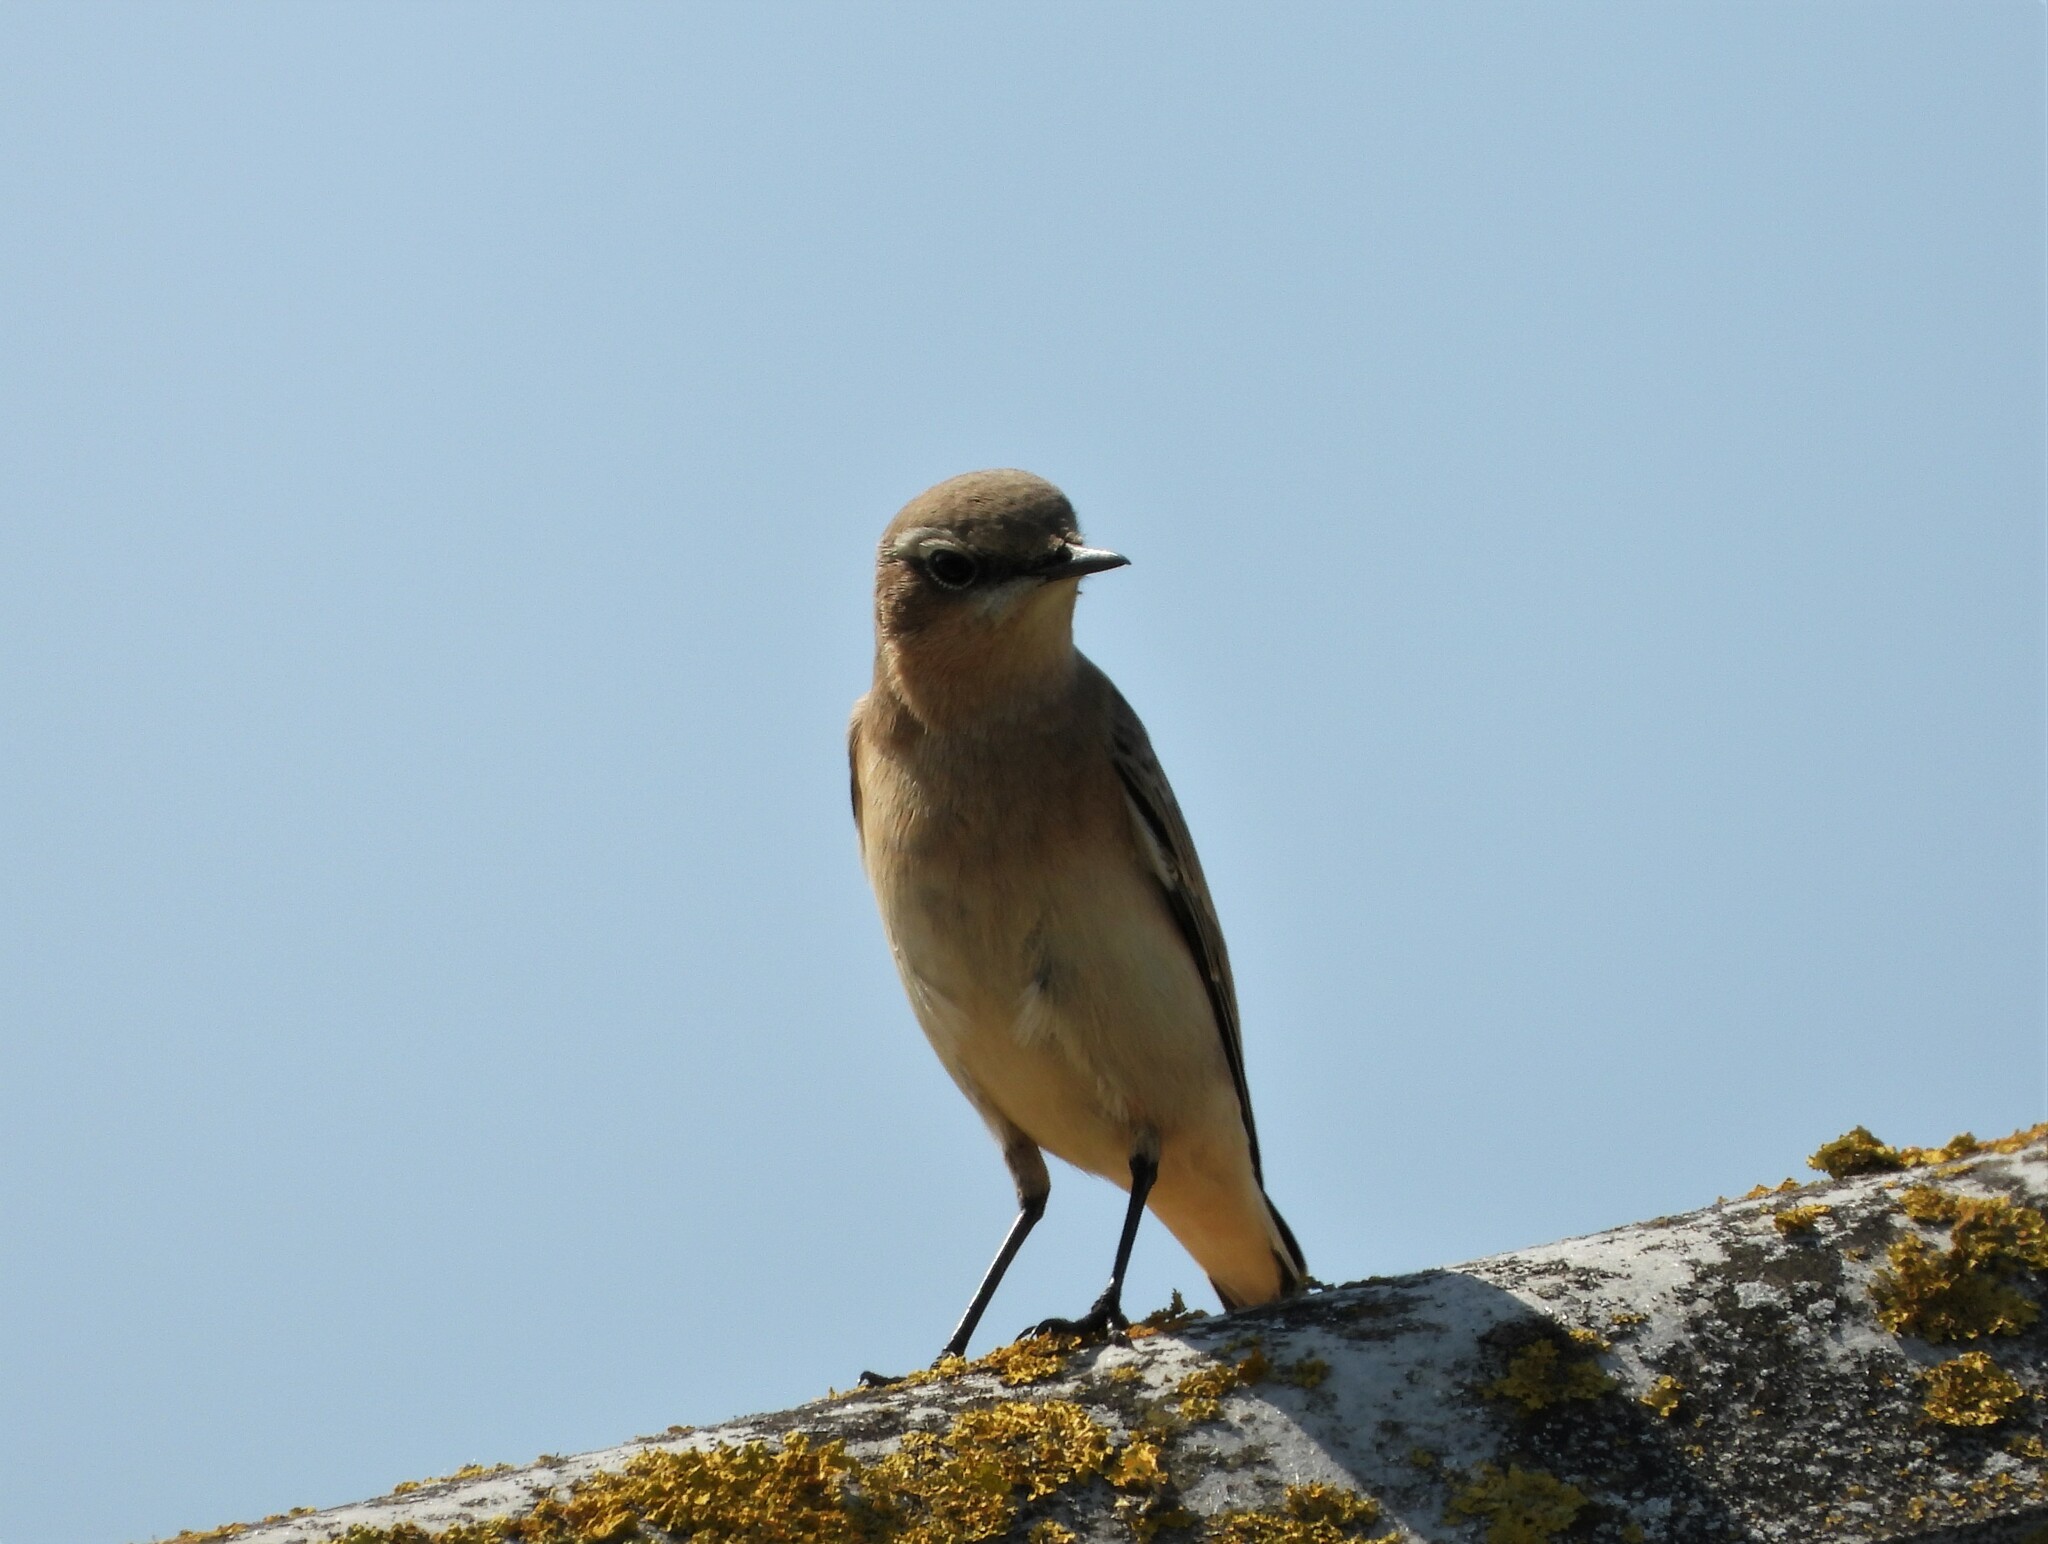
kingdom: Animalia
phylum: Chordata
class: Aves
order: Passeriformes
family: Muscicapidae
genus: Oenanthe
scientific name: Oenanthe oenanthe
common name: Northern wheatear
